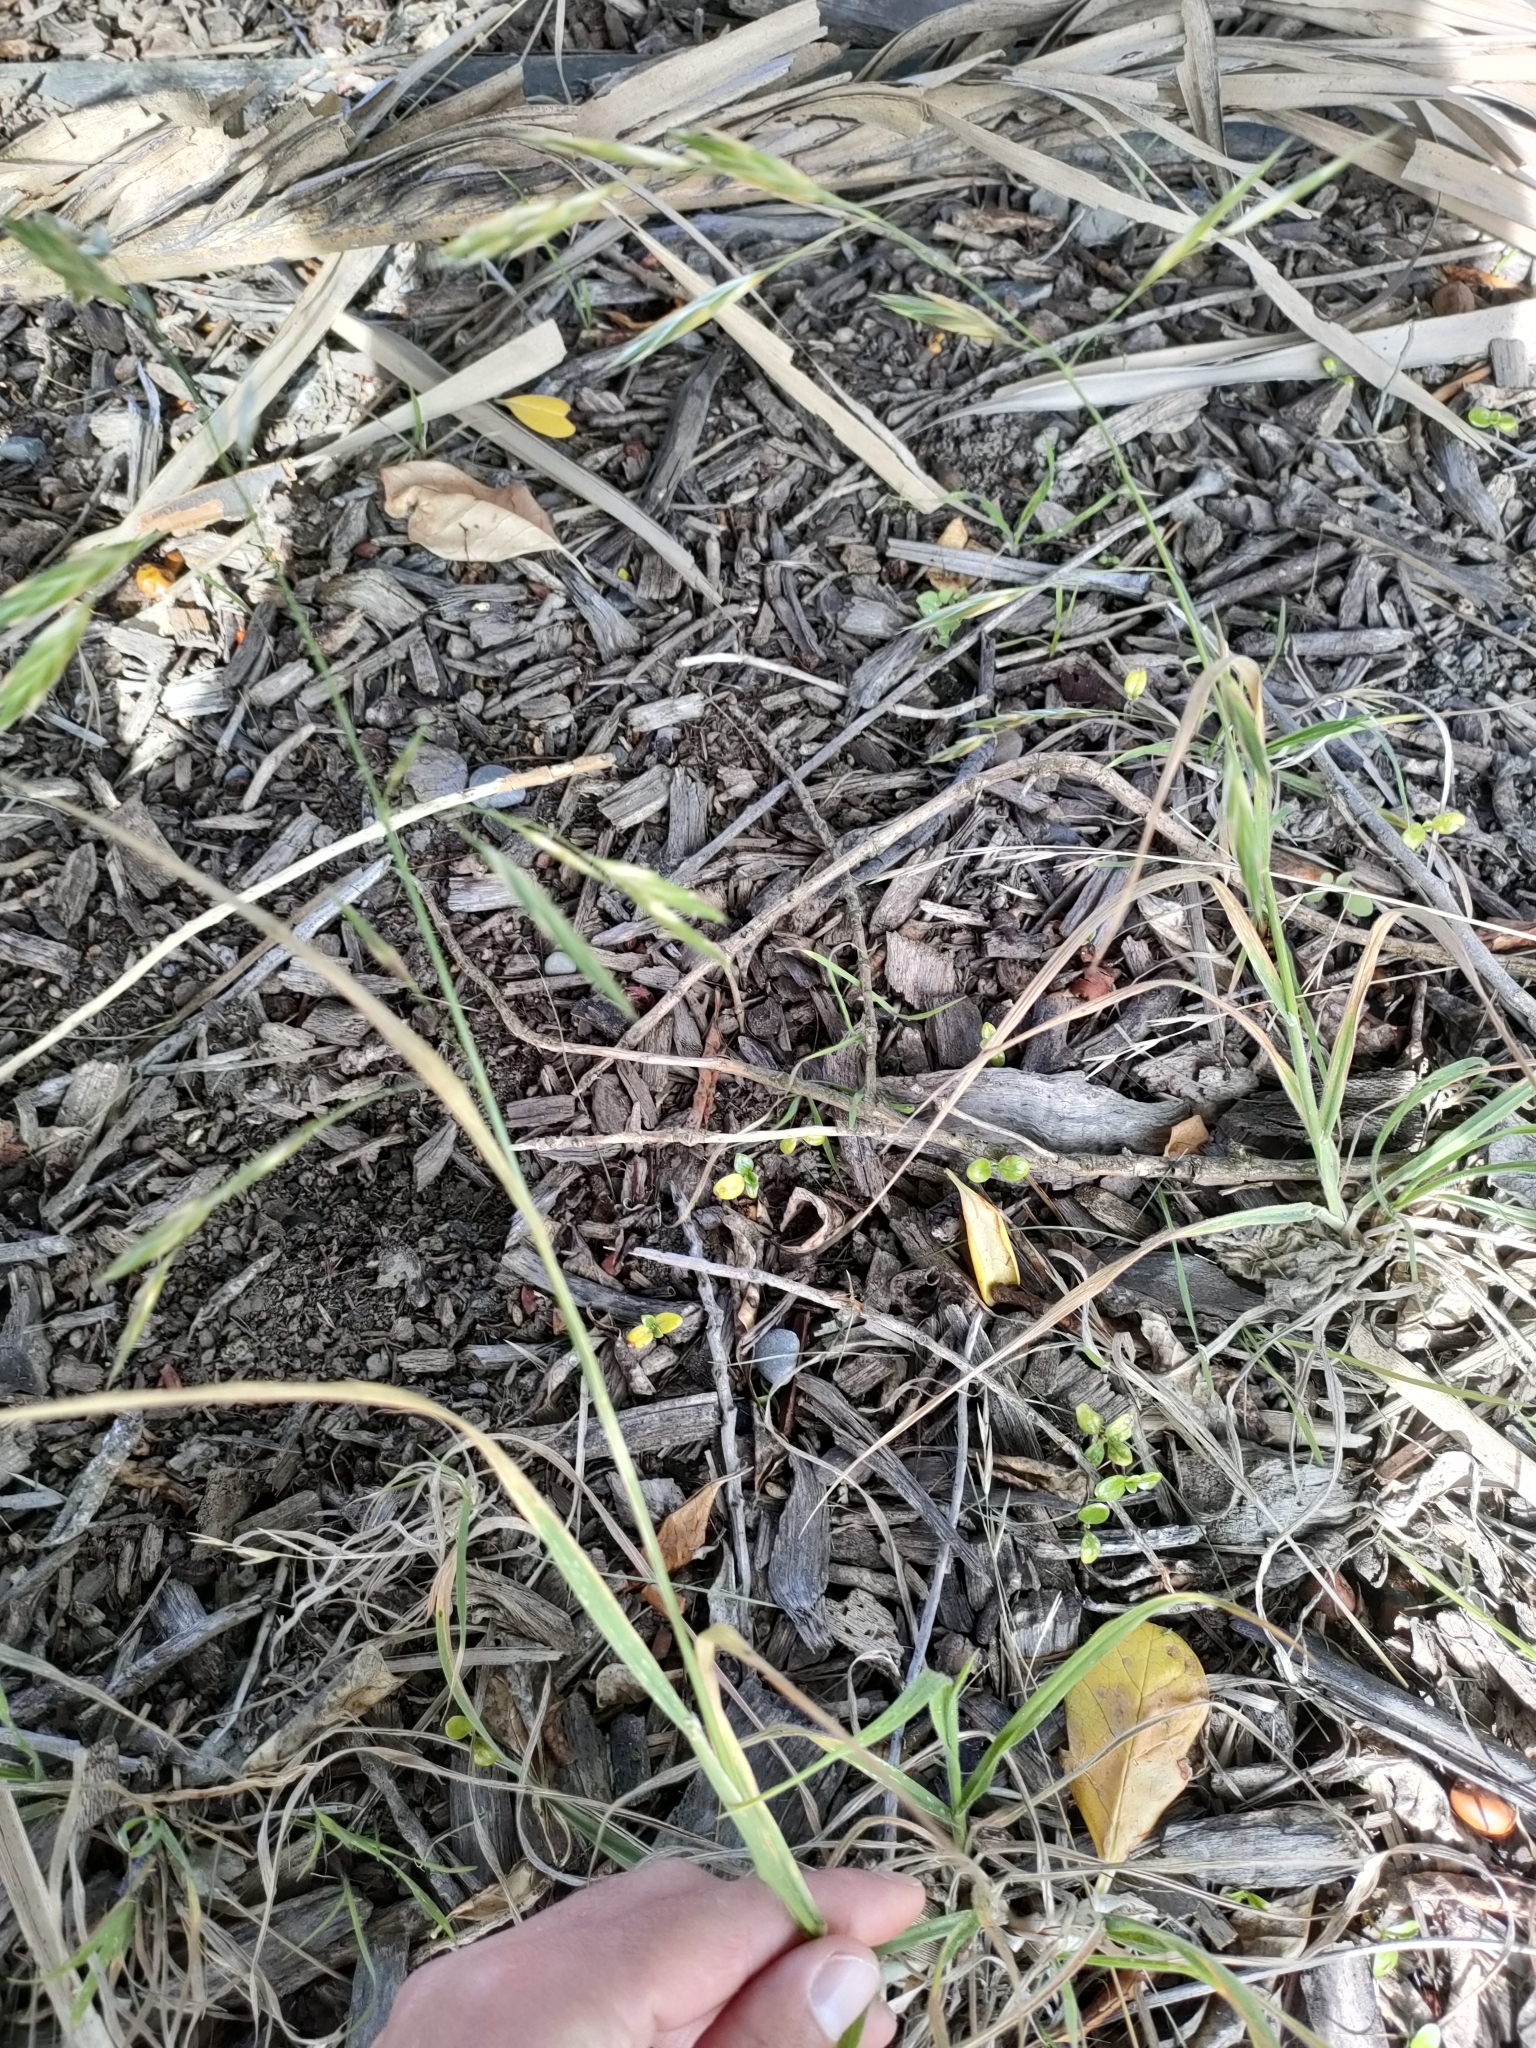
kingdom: Plantae
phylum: Tracheophyta
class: Liliopsida
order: Poales
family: Poaceae
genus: Bromus
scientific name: Bromus catharticus
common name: Rescuegrass
